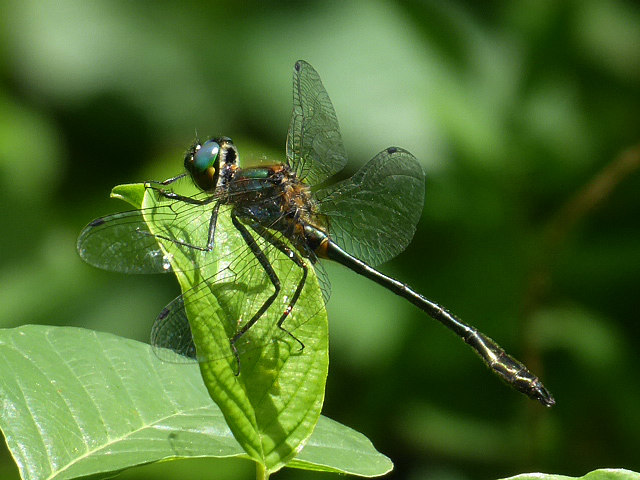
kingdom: Animalia
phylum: Arthropoda
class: Insecta
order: Odonata
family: Corduliidae
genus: Dorocordulia
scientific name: Dorocordulia libera
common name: Racket-tailed emerald
